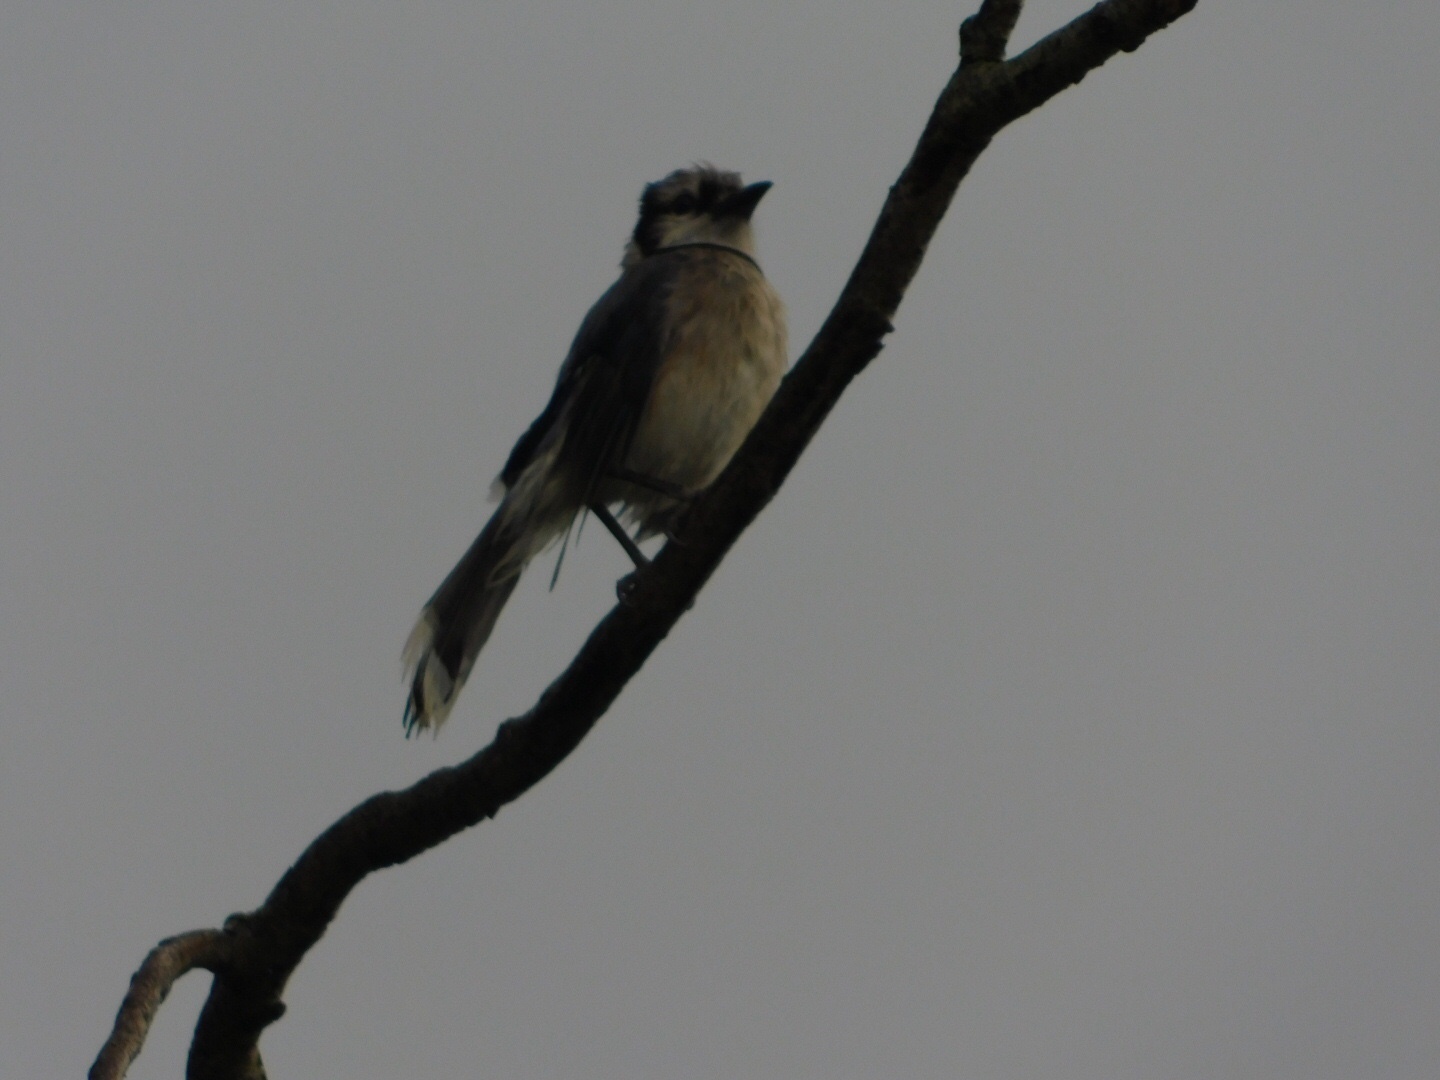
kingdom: Animalia
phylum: Chordata
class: Aves
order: Passeriformes
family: Corvidae
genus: Cyanocitta
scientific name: Cyanocitta cristata
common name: Blue jay
